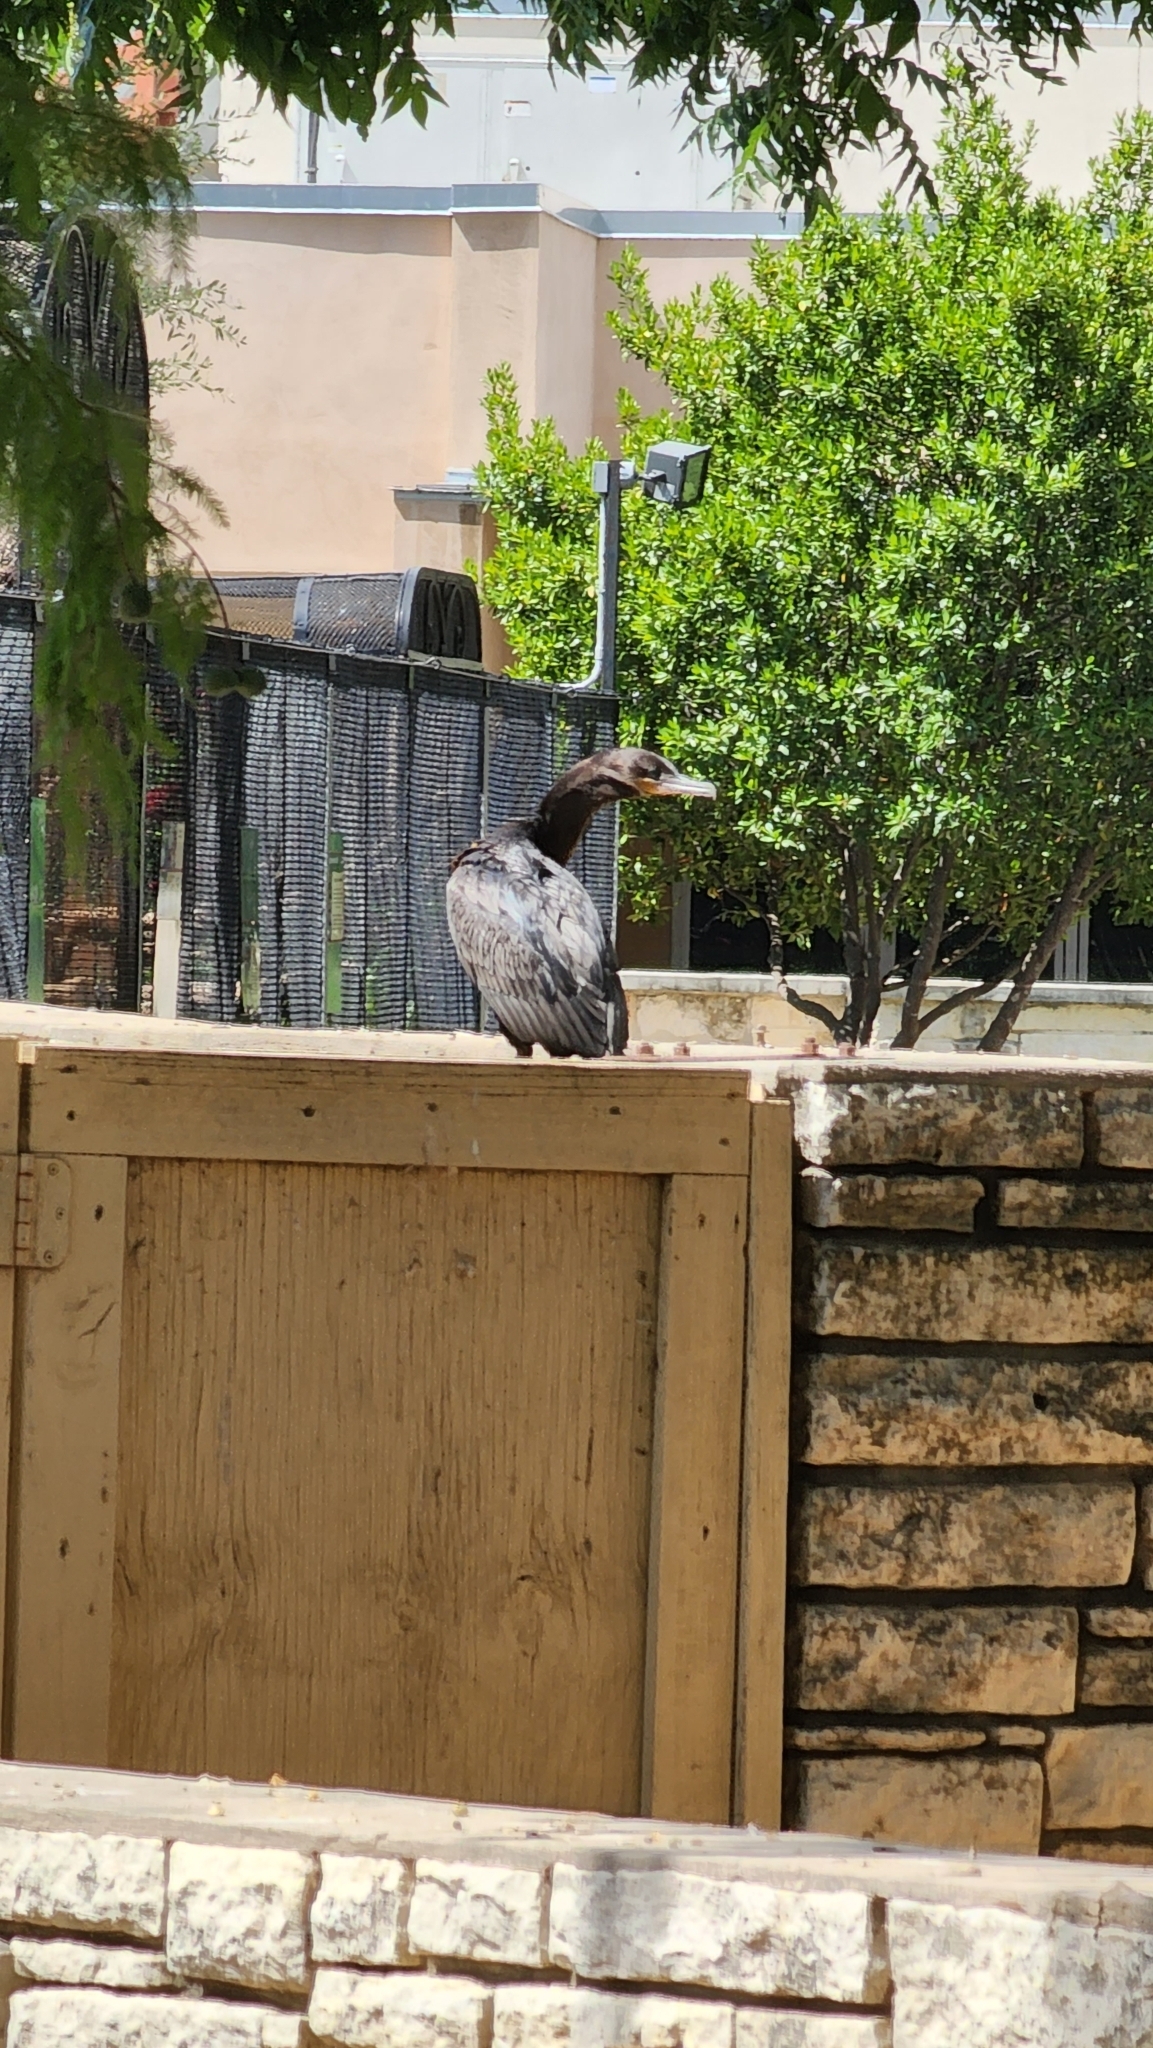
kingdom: Animalia
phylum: Chordata
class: Aves
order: Suliformes
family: Phalacrocoracidae
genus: Phalacrocorax
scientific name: Phalacrocorax brasilianus
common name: Neotropic cormorant
